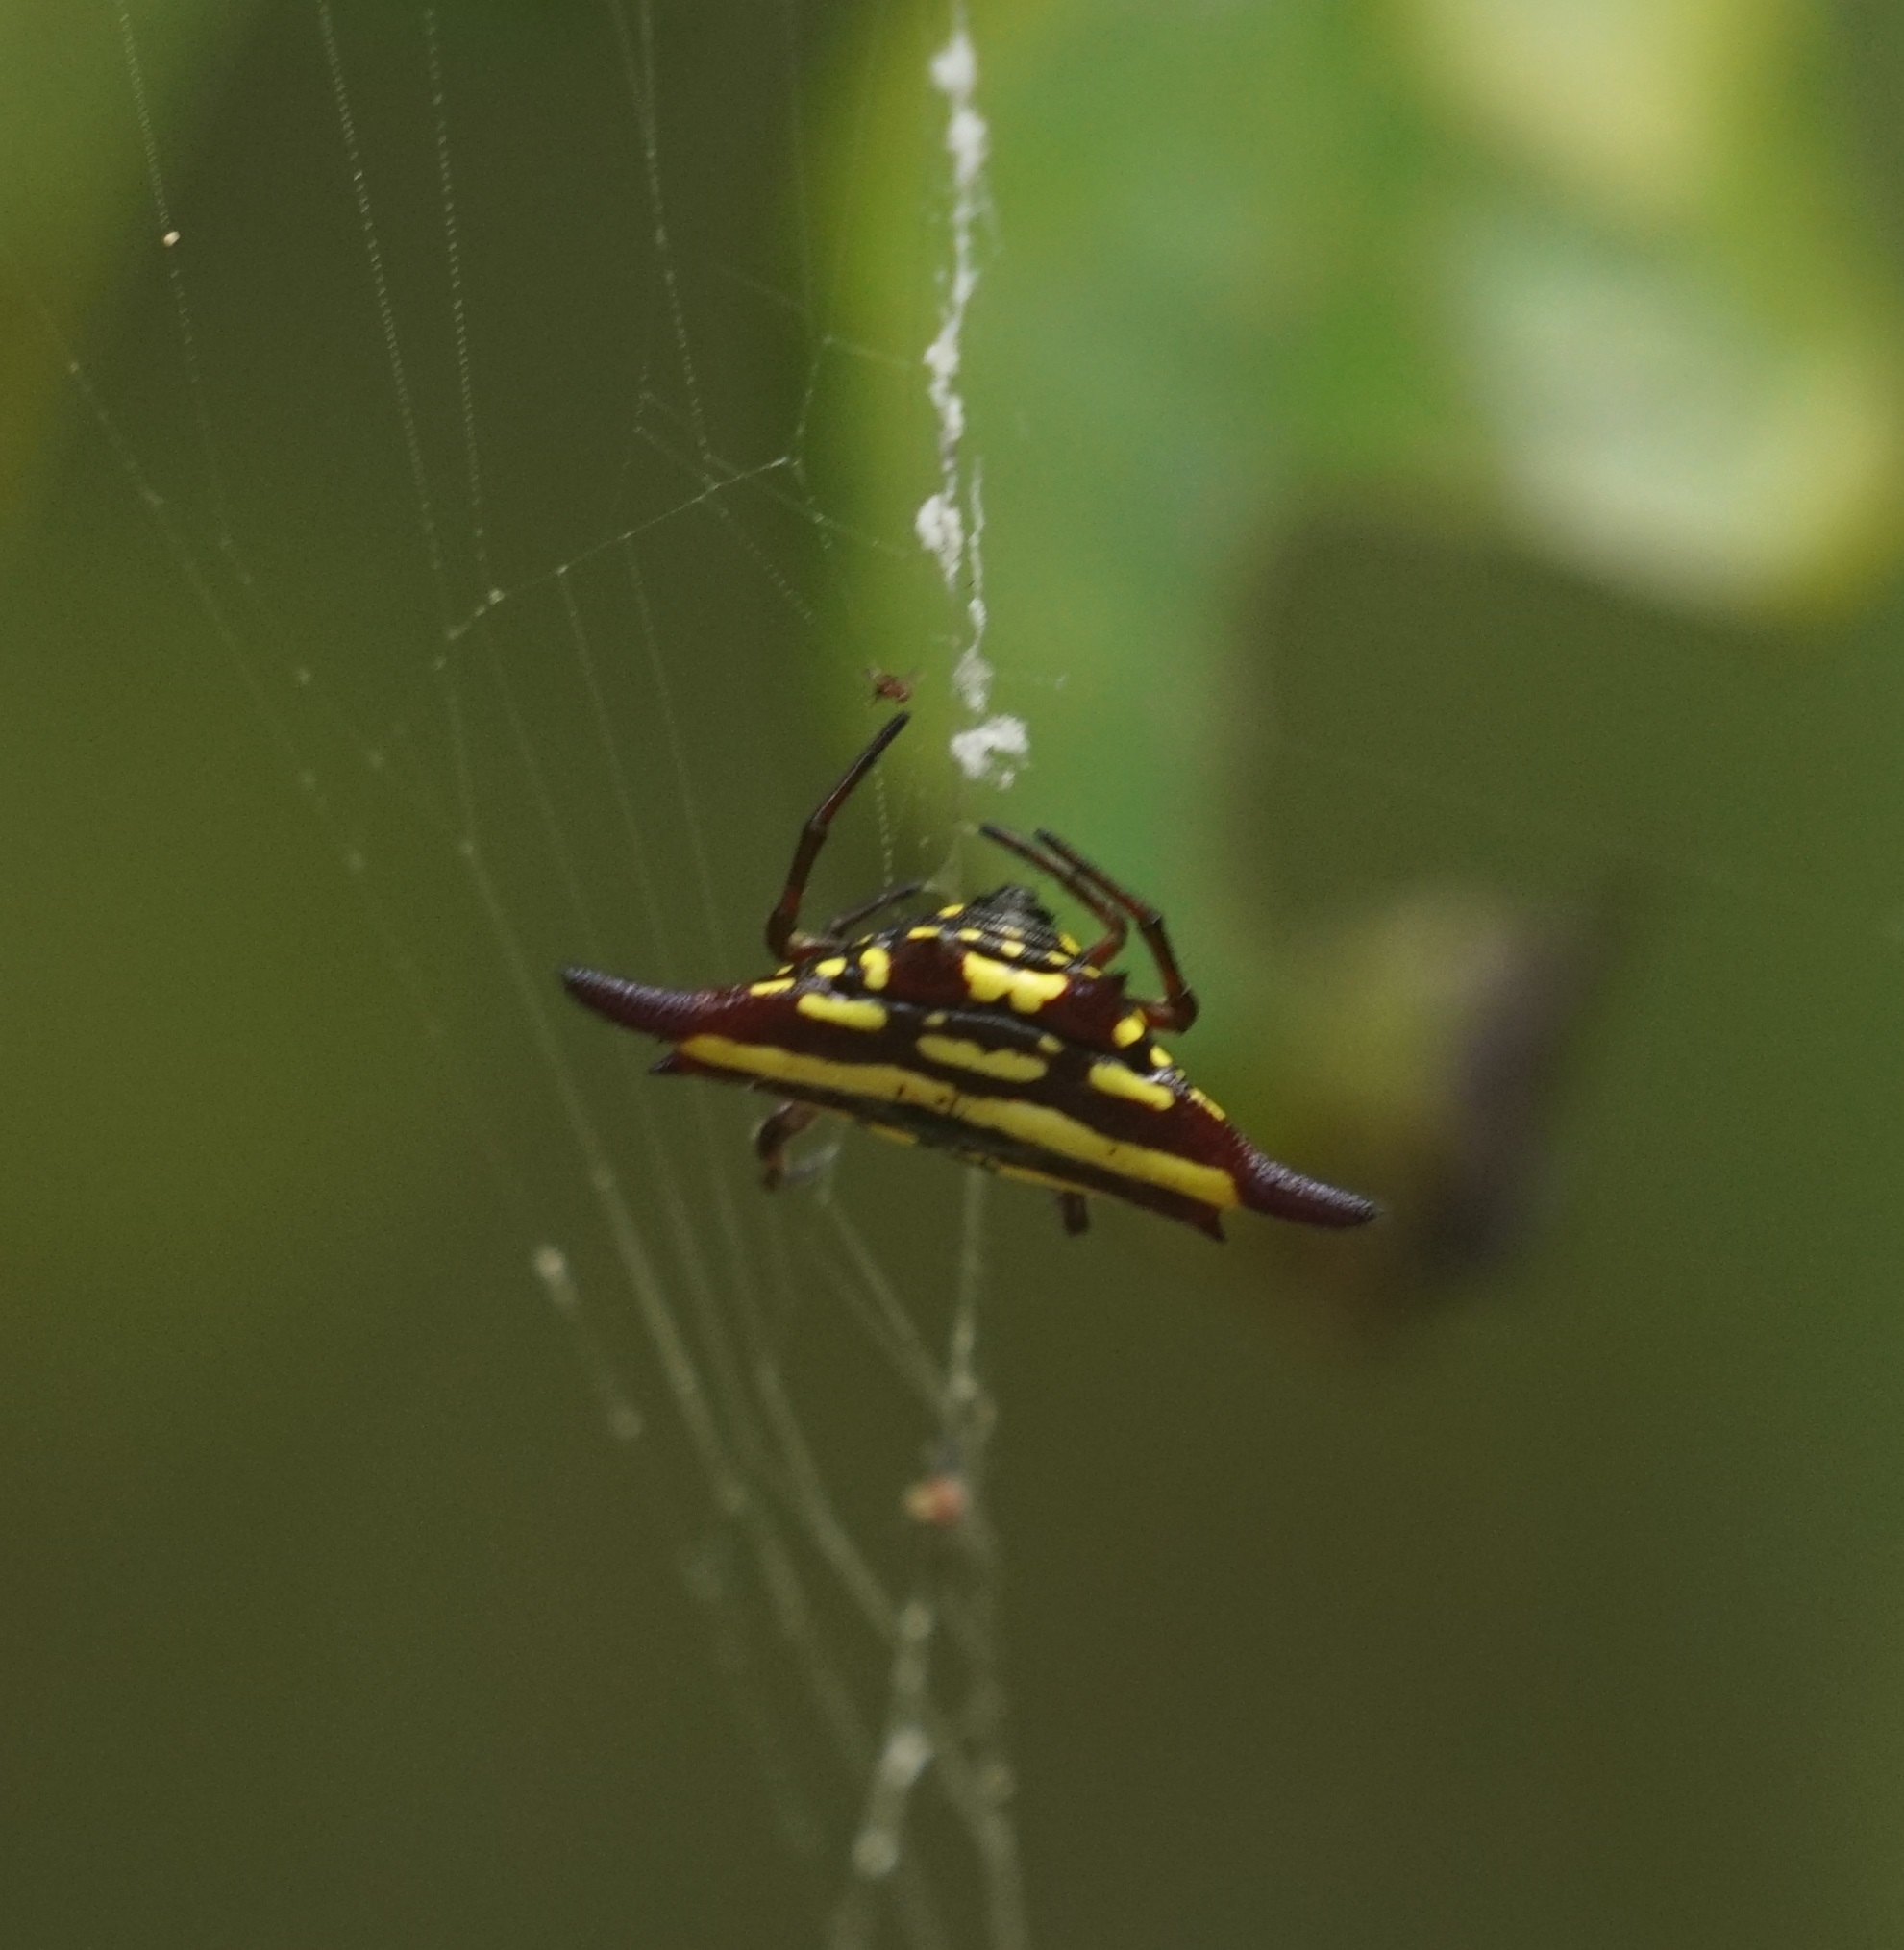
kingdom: Animalia
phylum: Arthropoda
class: Arachnida
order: Araneae
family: Araneidae
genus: Gasteracantha
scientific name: Gasteracantha fornicata
